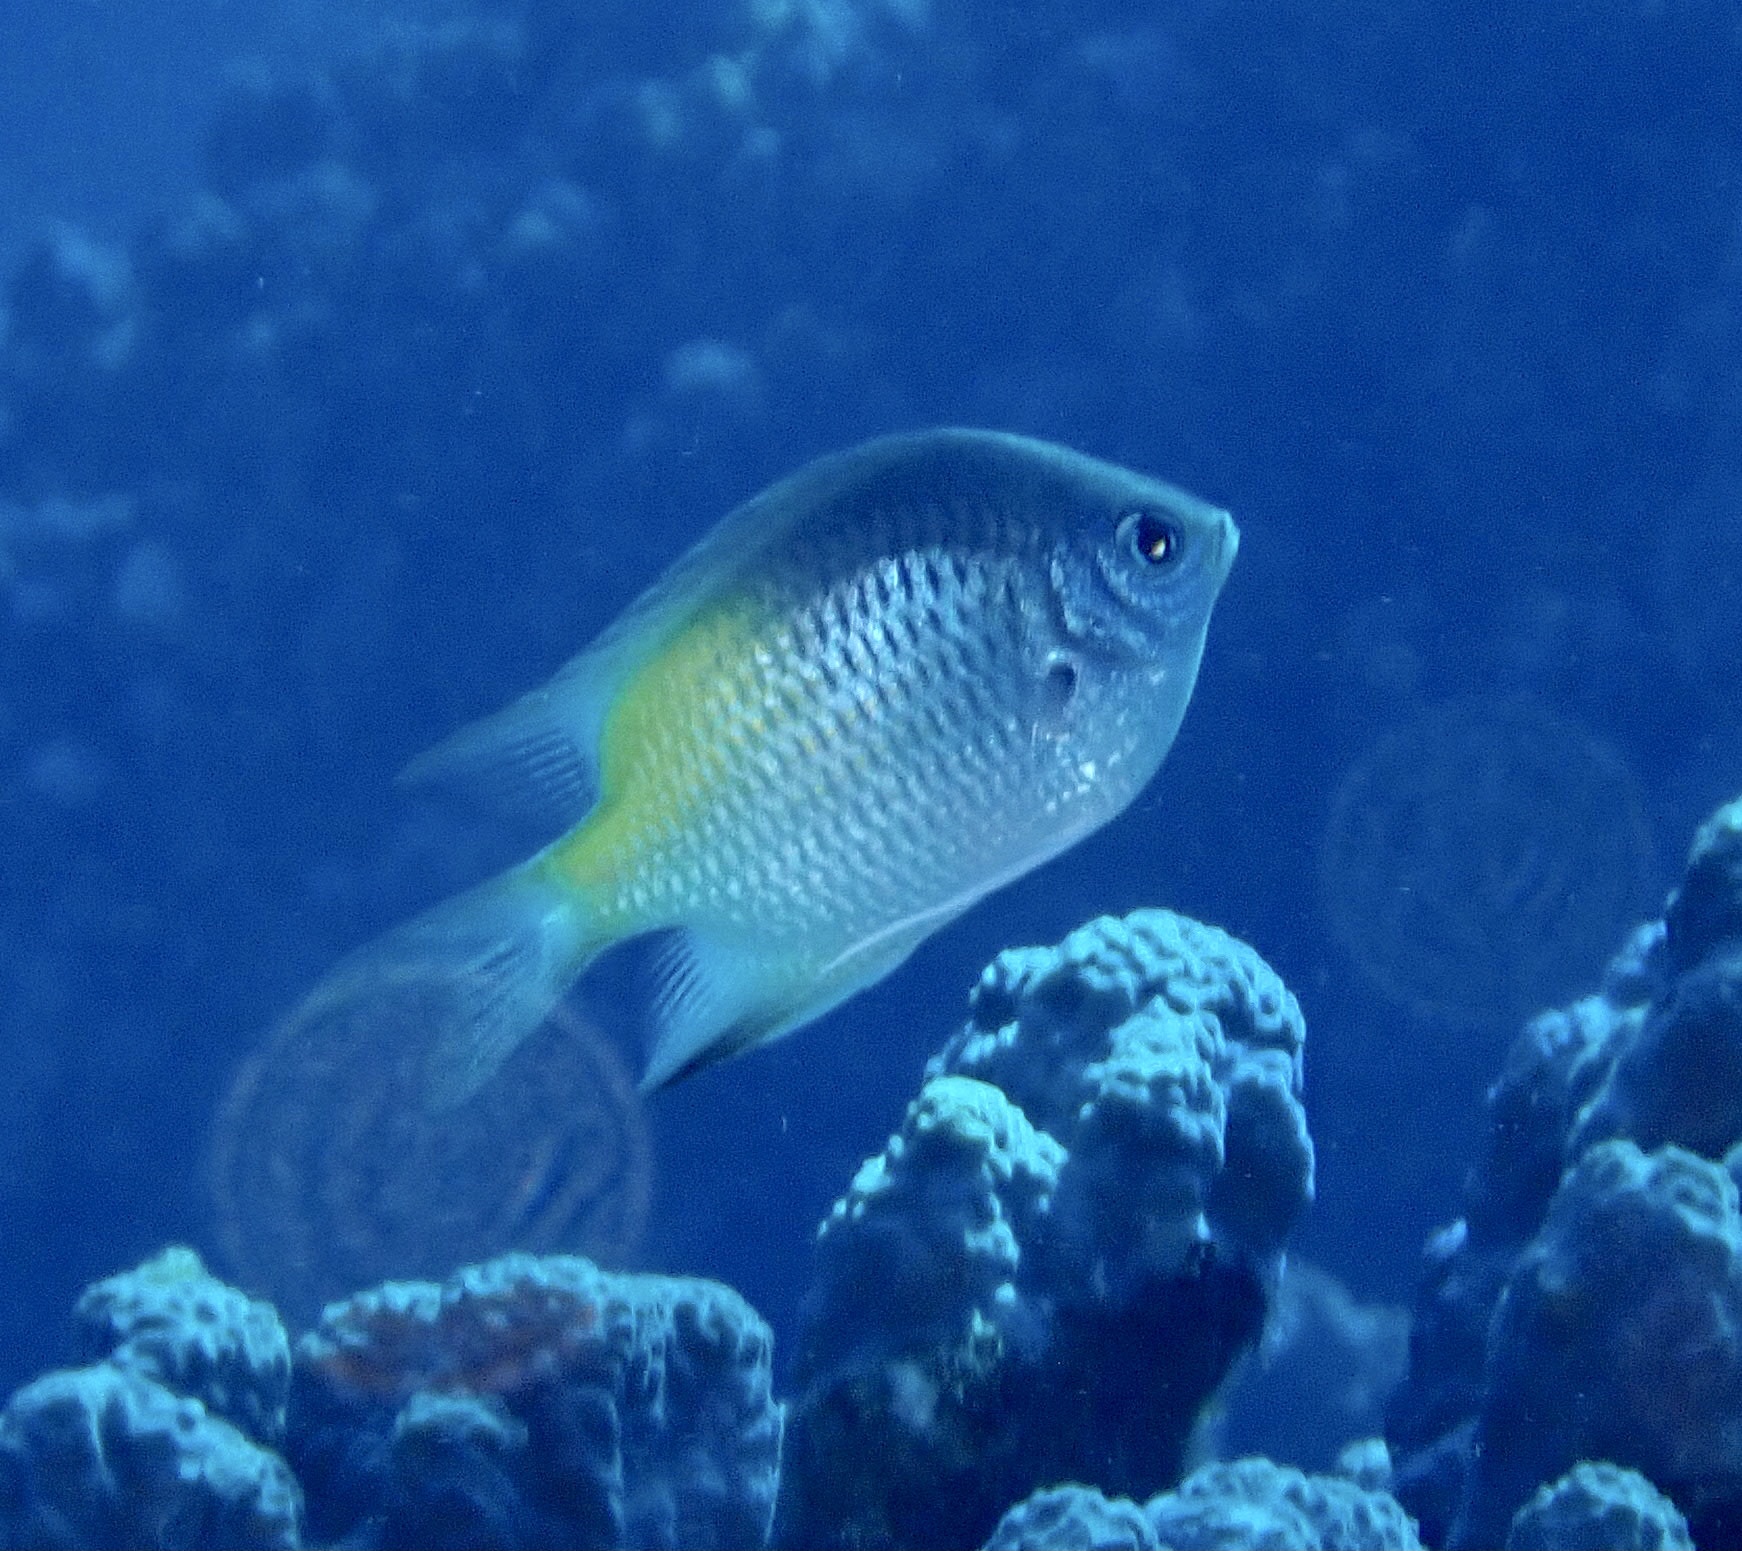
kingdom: Animalia
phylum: Chordata
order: Perciformes
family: Pomacentridae
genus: Amblyglyphidodon
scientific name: Amblyglyphidodon flavilatus
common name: Yellowfin damsel
